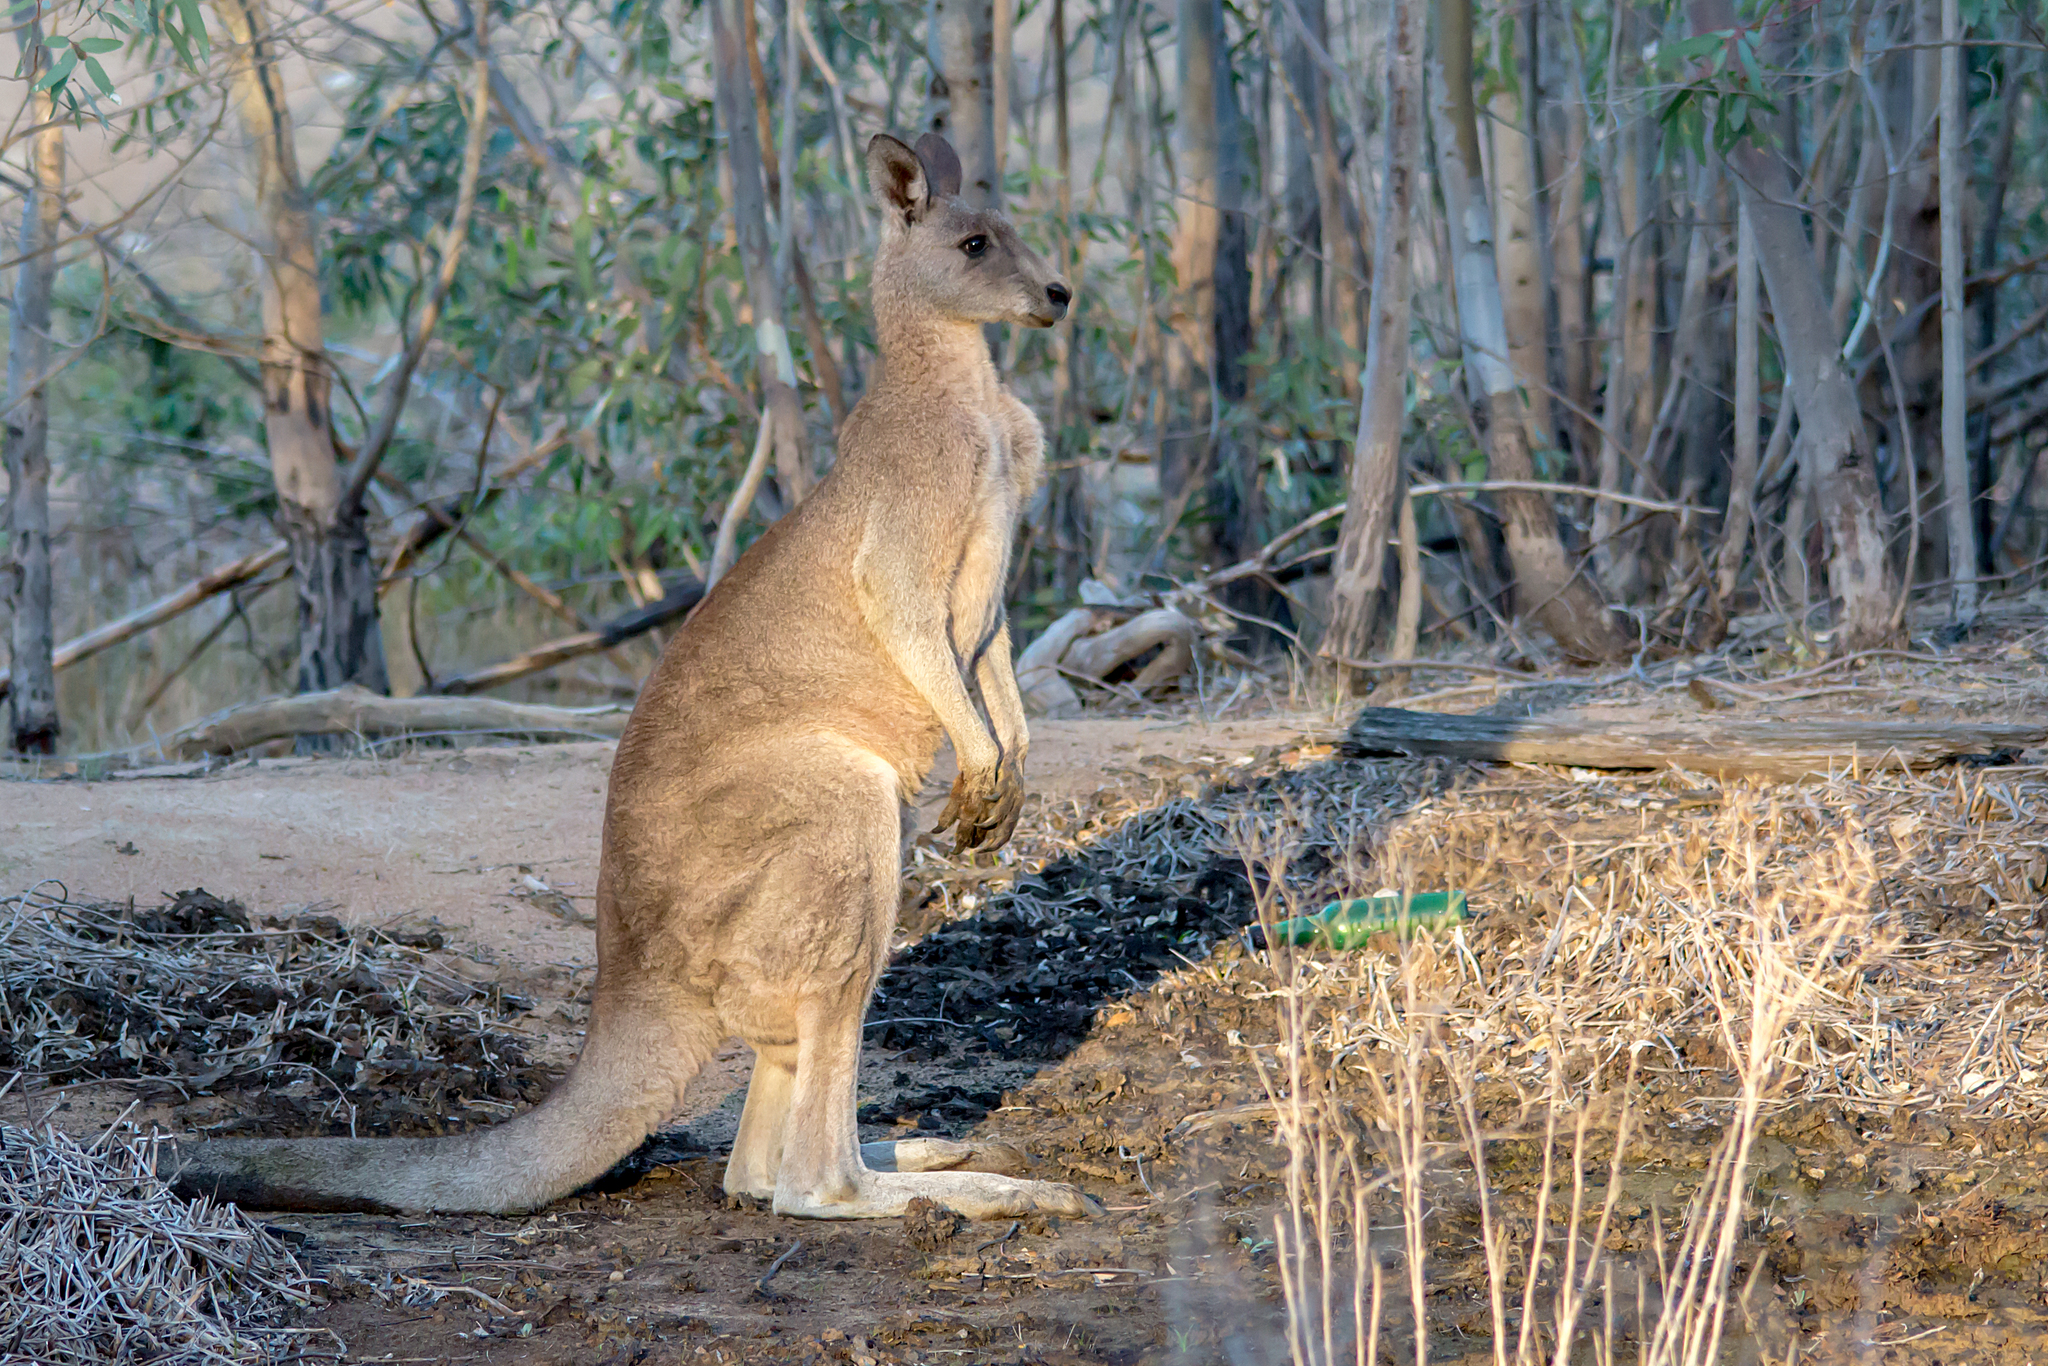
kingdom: Animalia
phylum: Chordata
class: Mammalia
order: Diprotodontia
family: Macropodidae
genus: Macropus
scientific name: Macropus giganteus
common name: Eastern grey kangaroo
